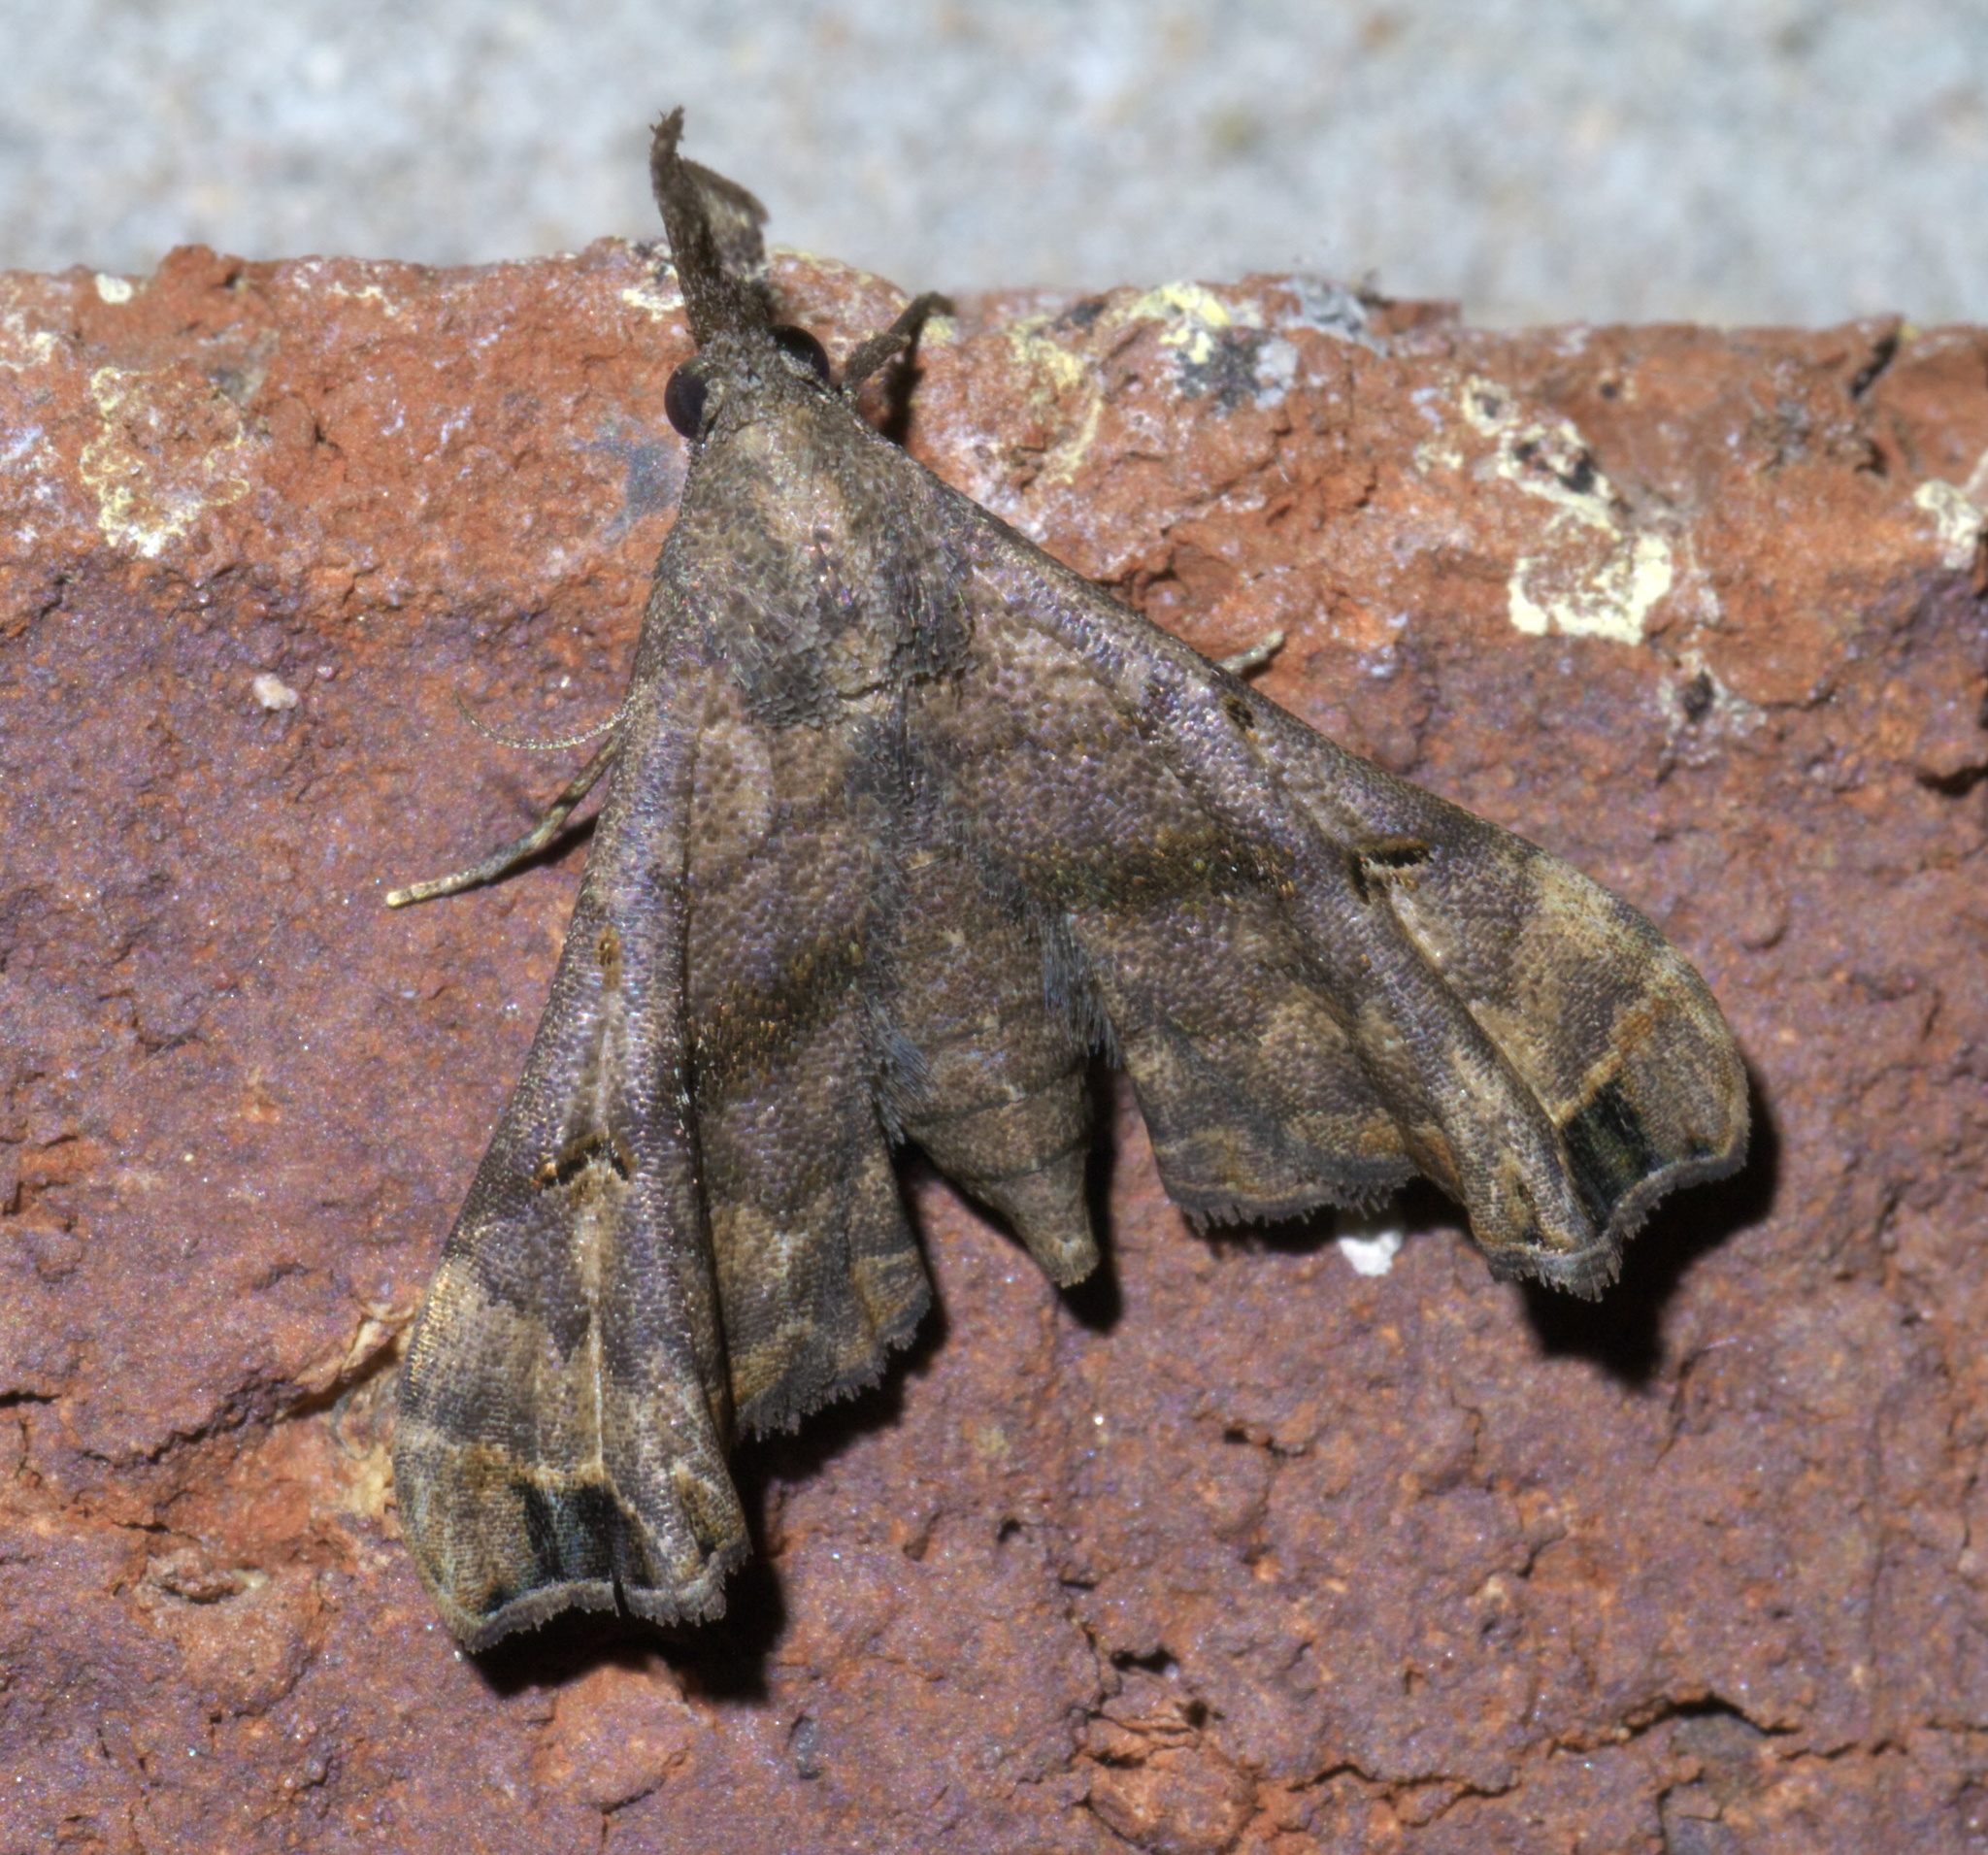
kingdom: Animalia
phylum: Arthropoda
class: Insecta
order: Lepidoptera
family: Erebidae
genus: Palthis
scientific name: Palthis asopialis
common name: Faint-spotted palthis moth
